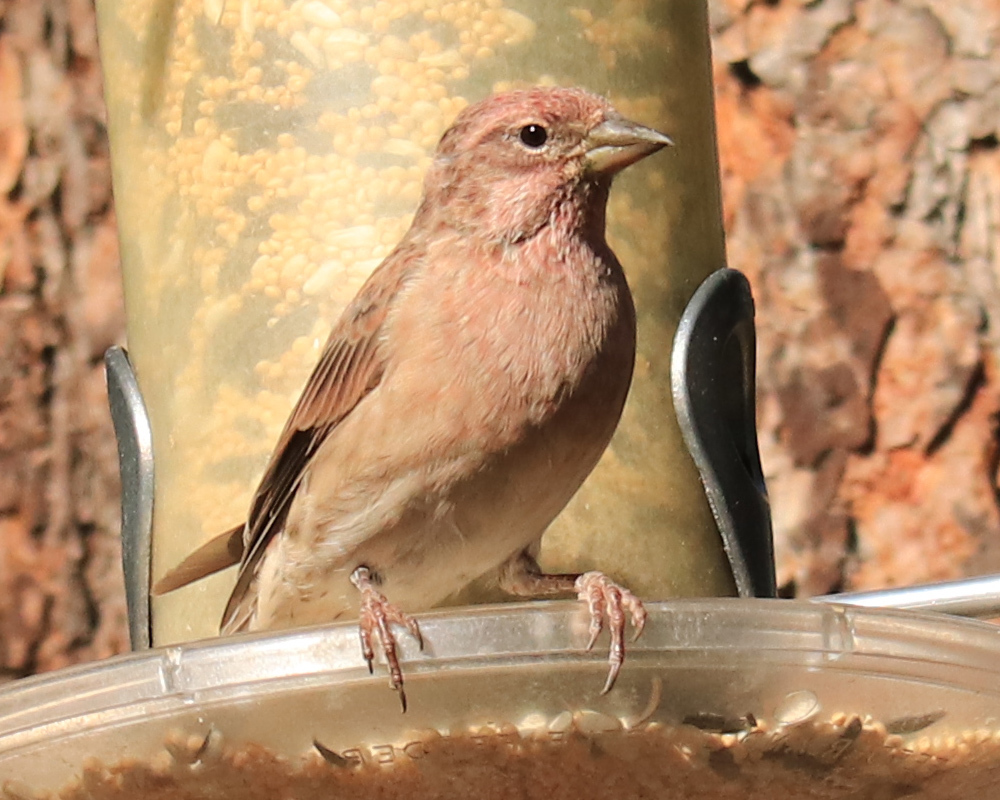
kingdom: Animalia
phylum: Chordata
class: Aves
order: Passeriformes
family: Fringillidae
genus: Haemorhous
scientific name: Haemorhous cassinii
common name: Cassin's finch
